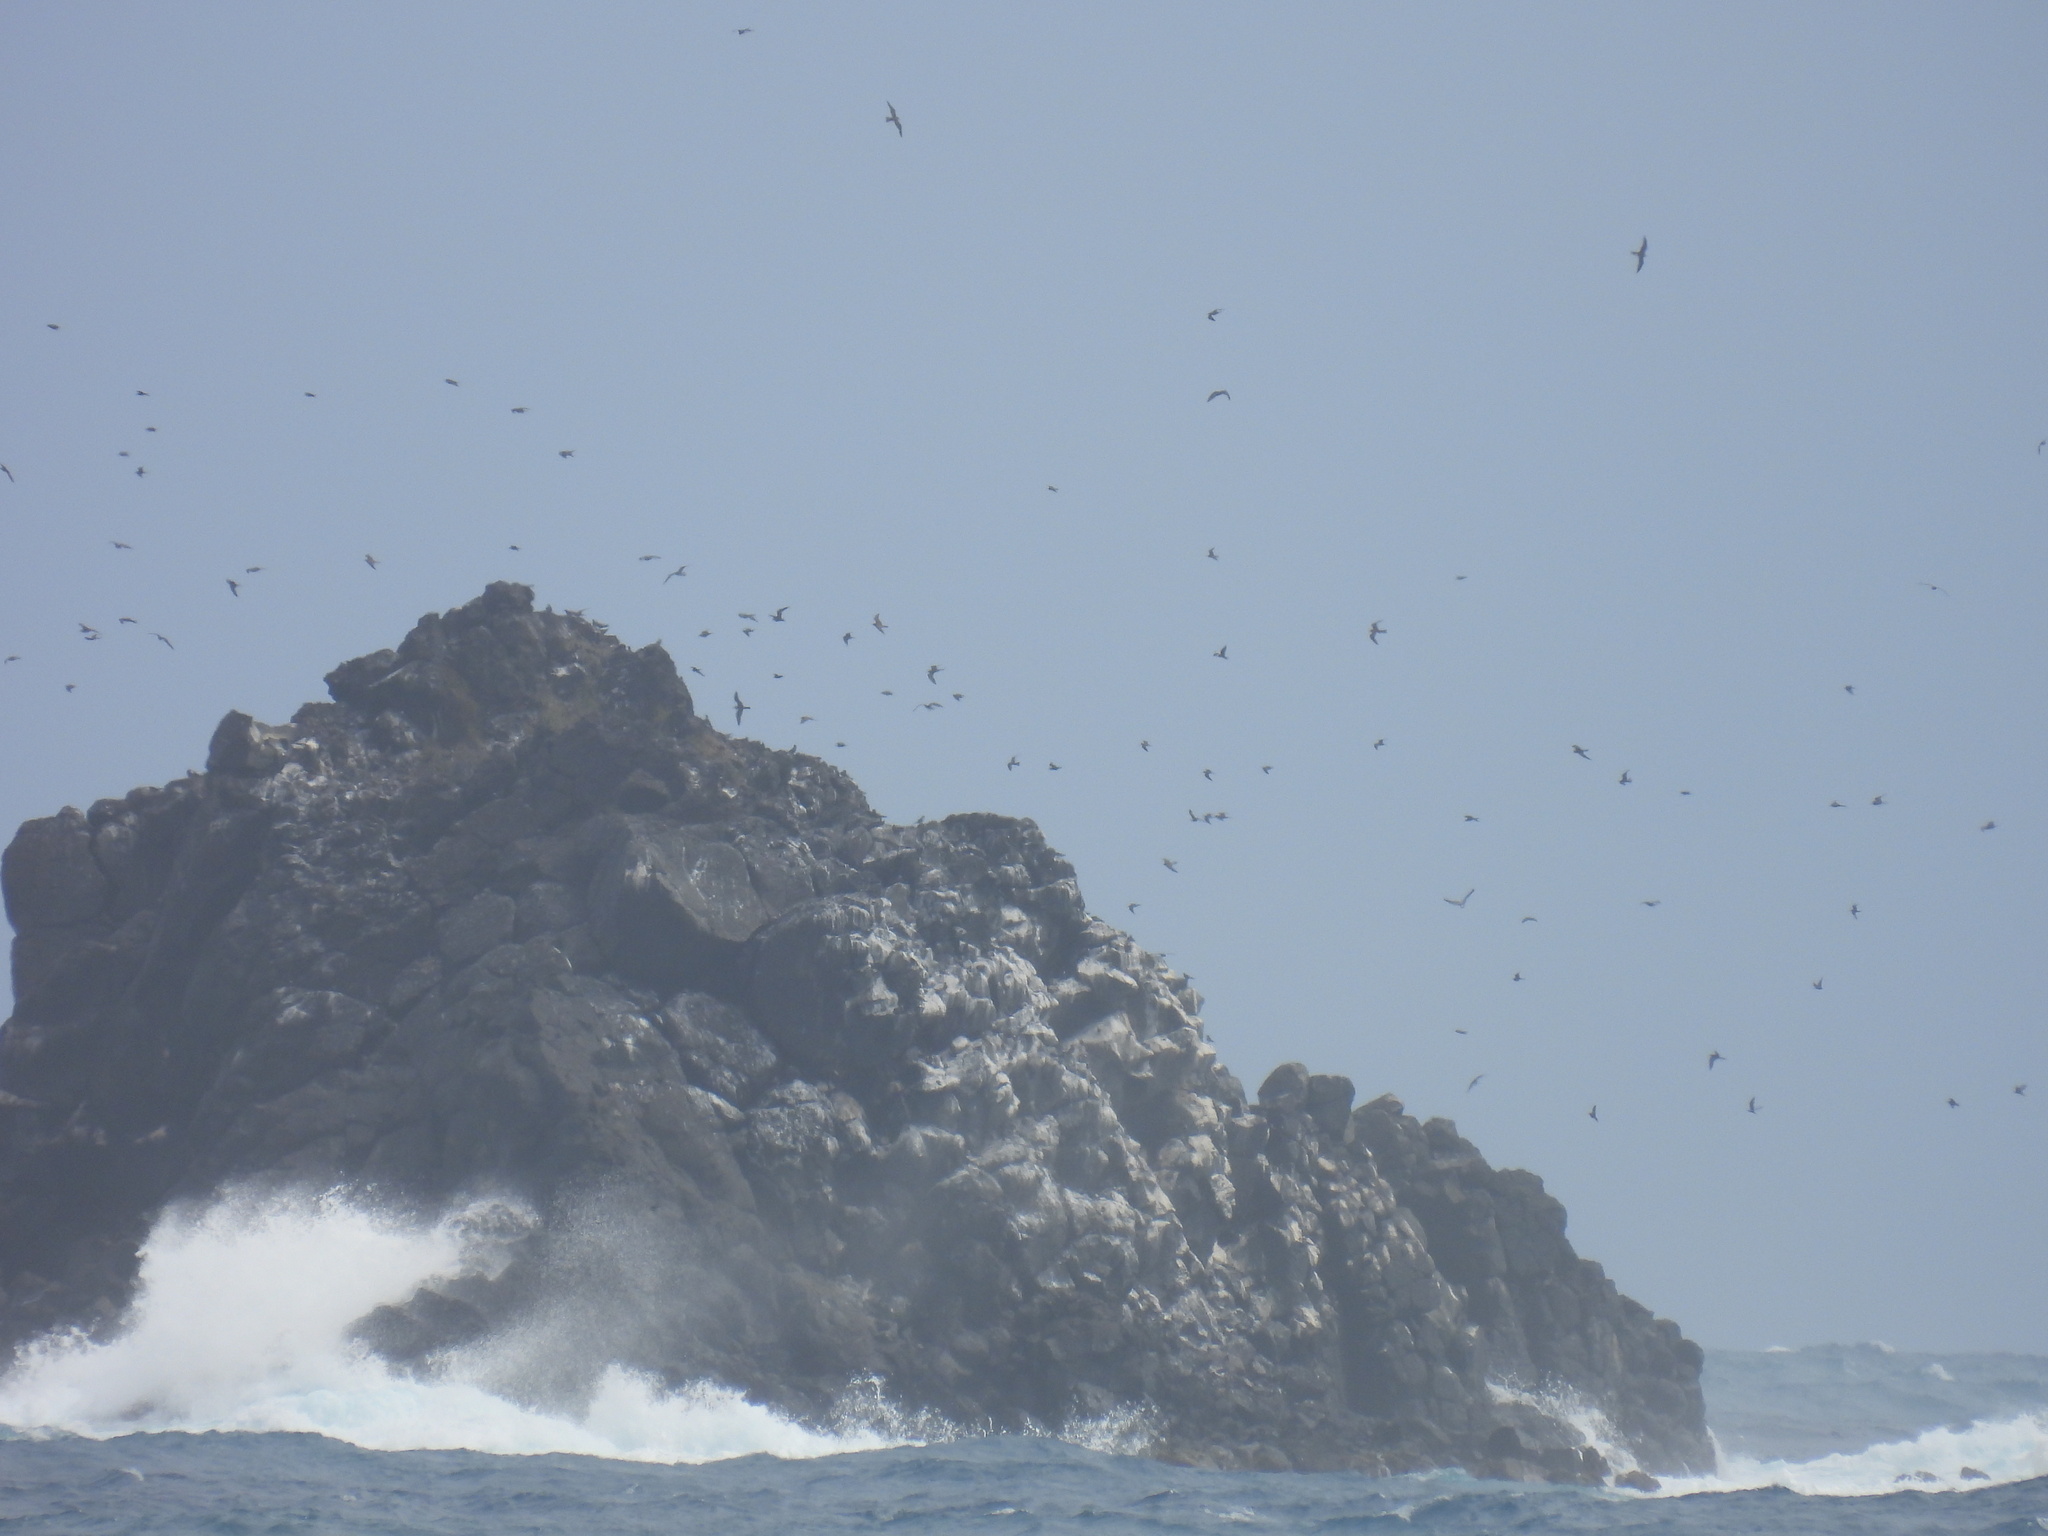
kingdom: Animalia
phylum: Chordata
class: Aves
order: Charadriiformes
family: Laridae
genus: Anous
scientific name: Anous stolidus
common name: Brown noddy
